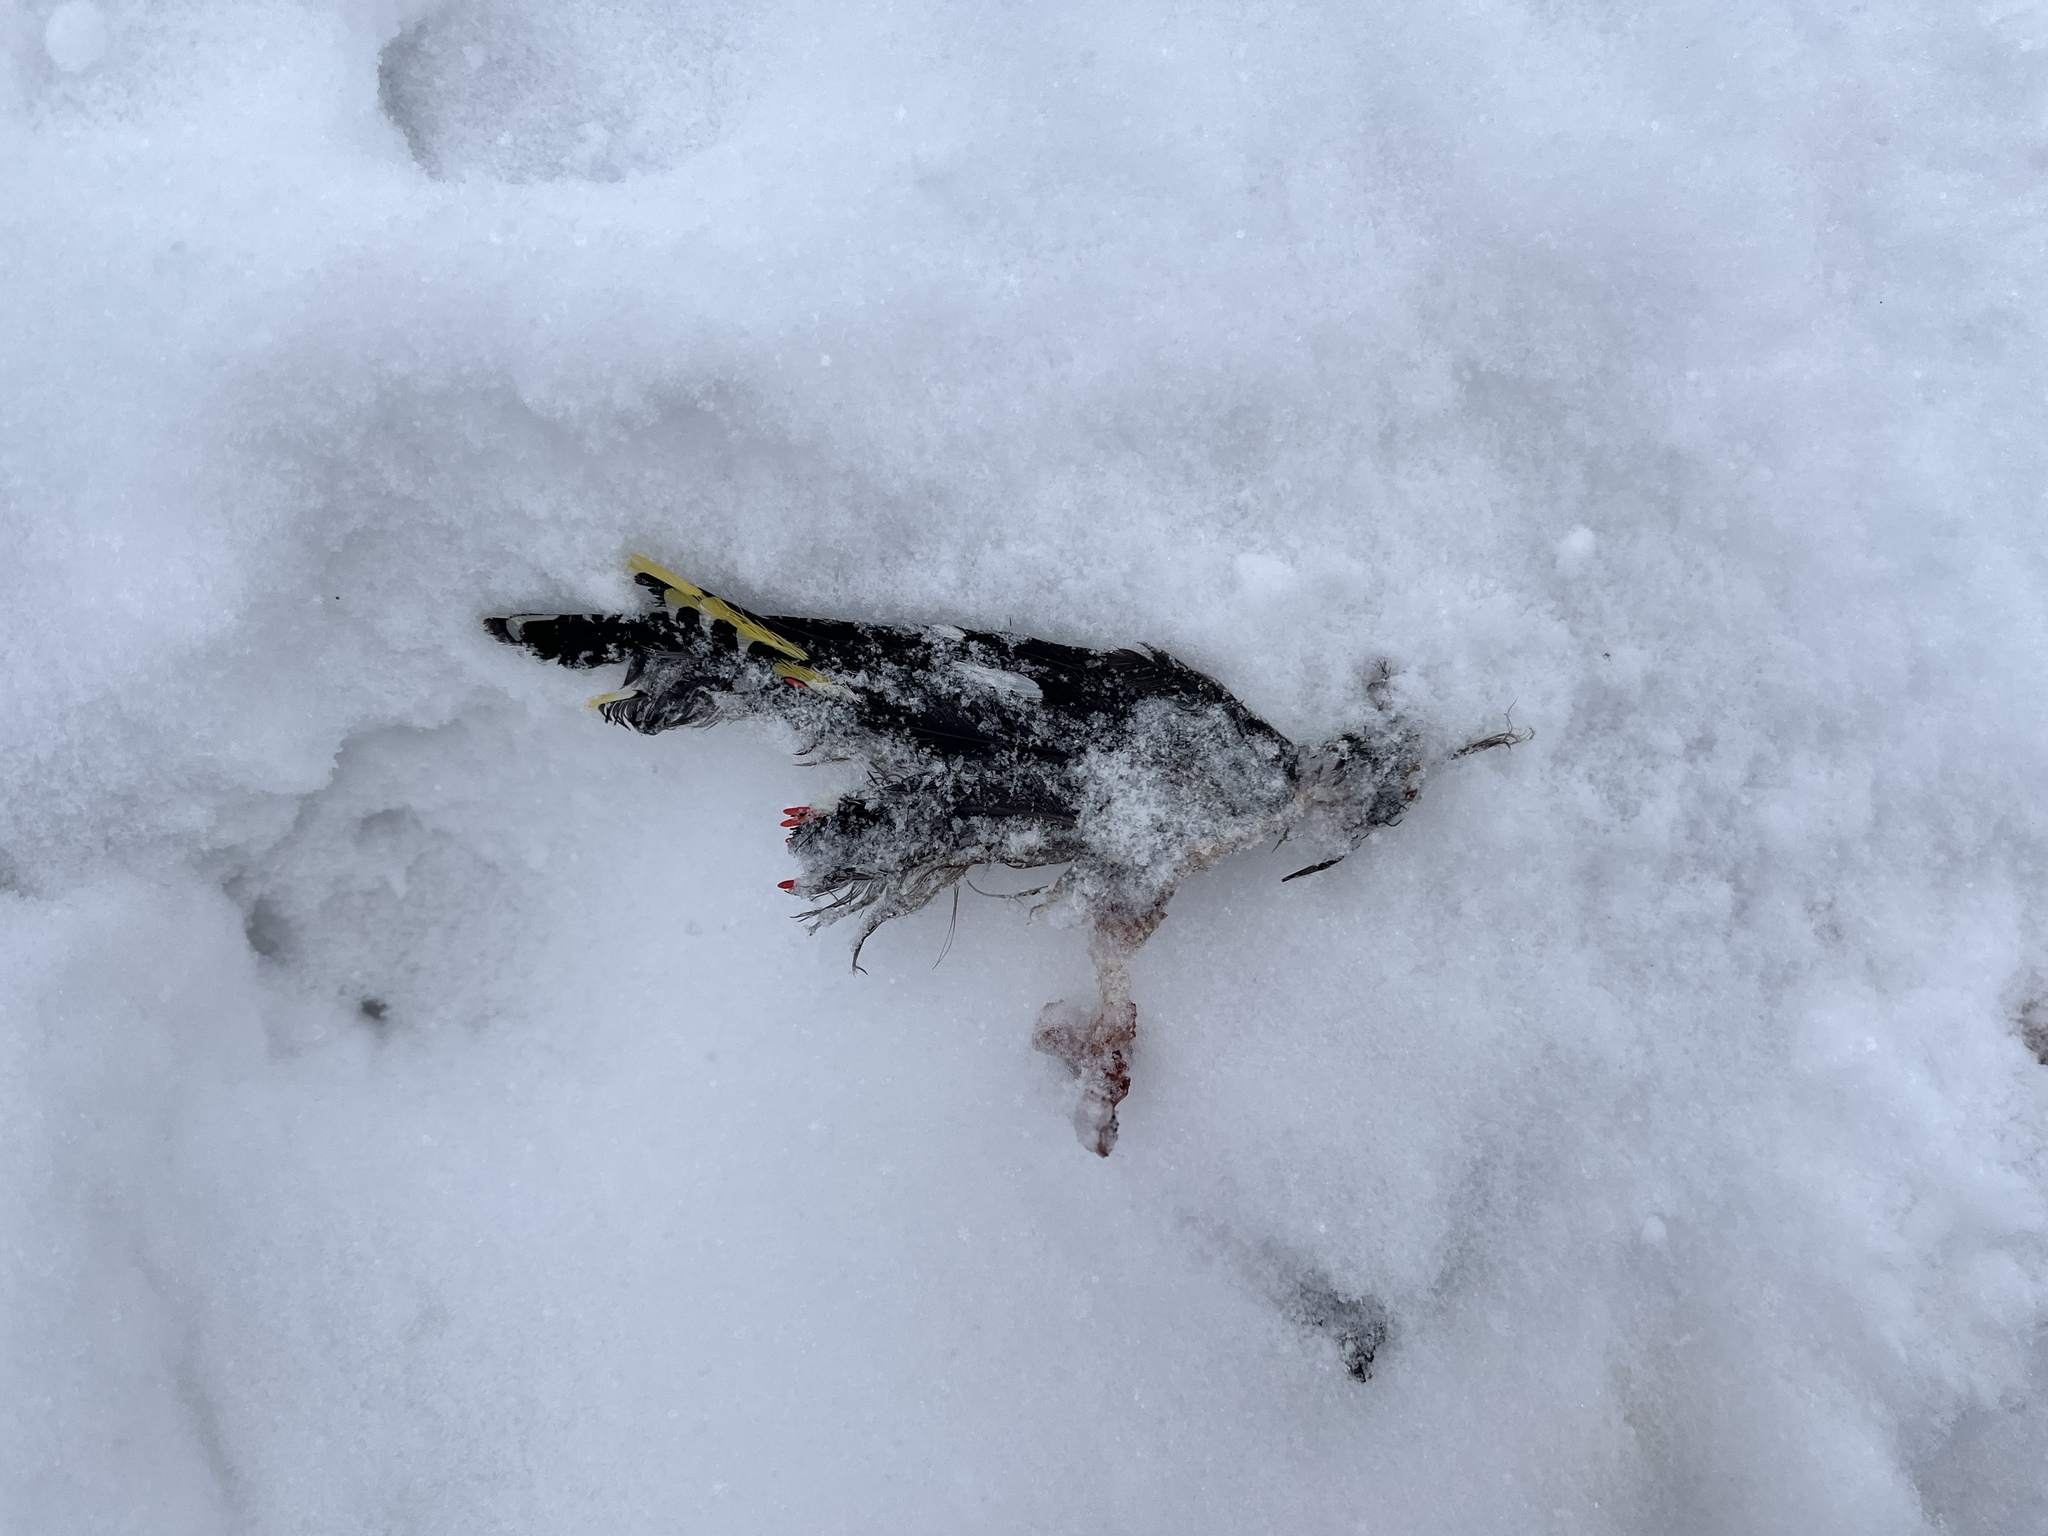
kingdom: Animalia
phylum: Chordata
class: Aves
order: Passeriformes
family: Bombycillidae
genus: Bombycilla
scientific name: Bombycilla garrulus
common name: Bohemian waxwing
